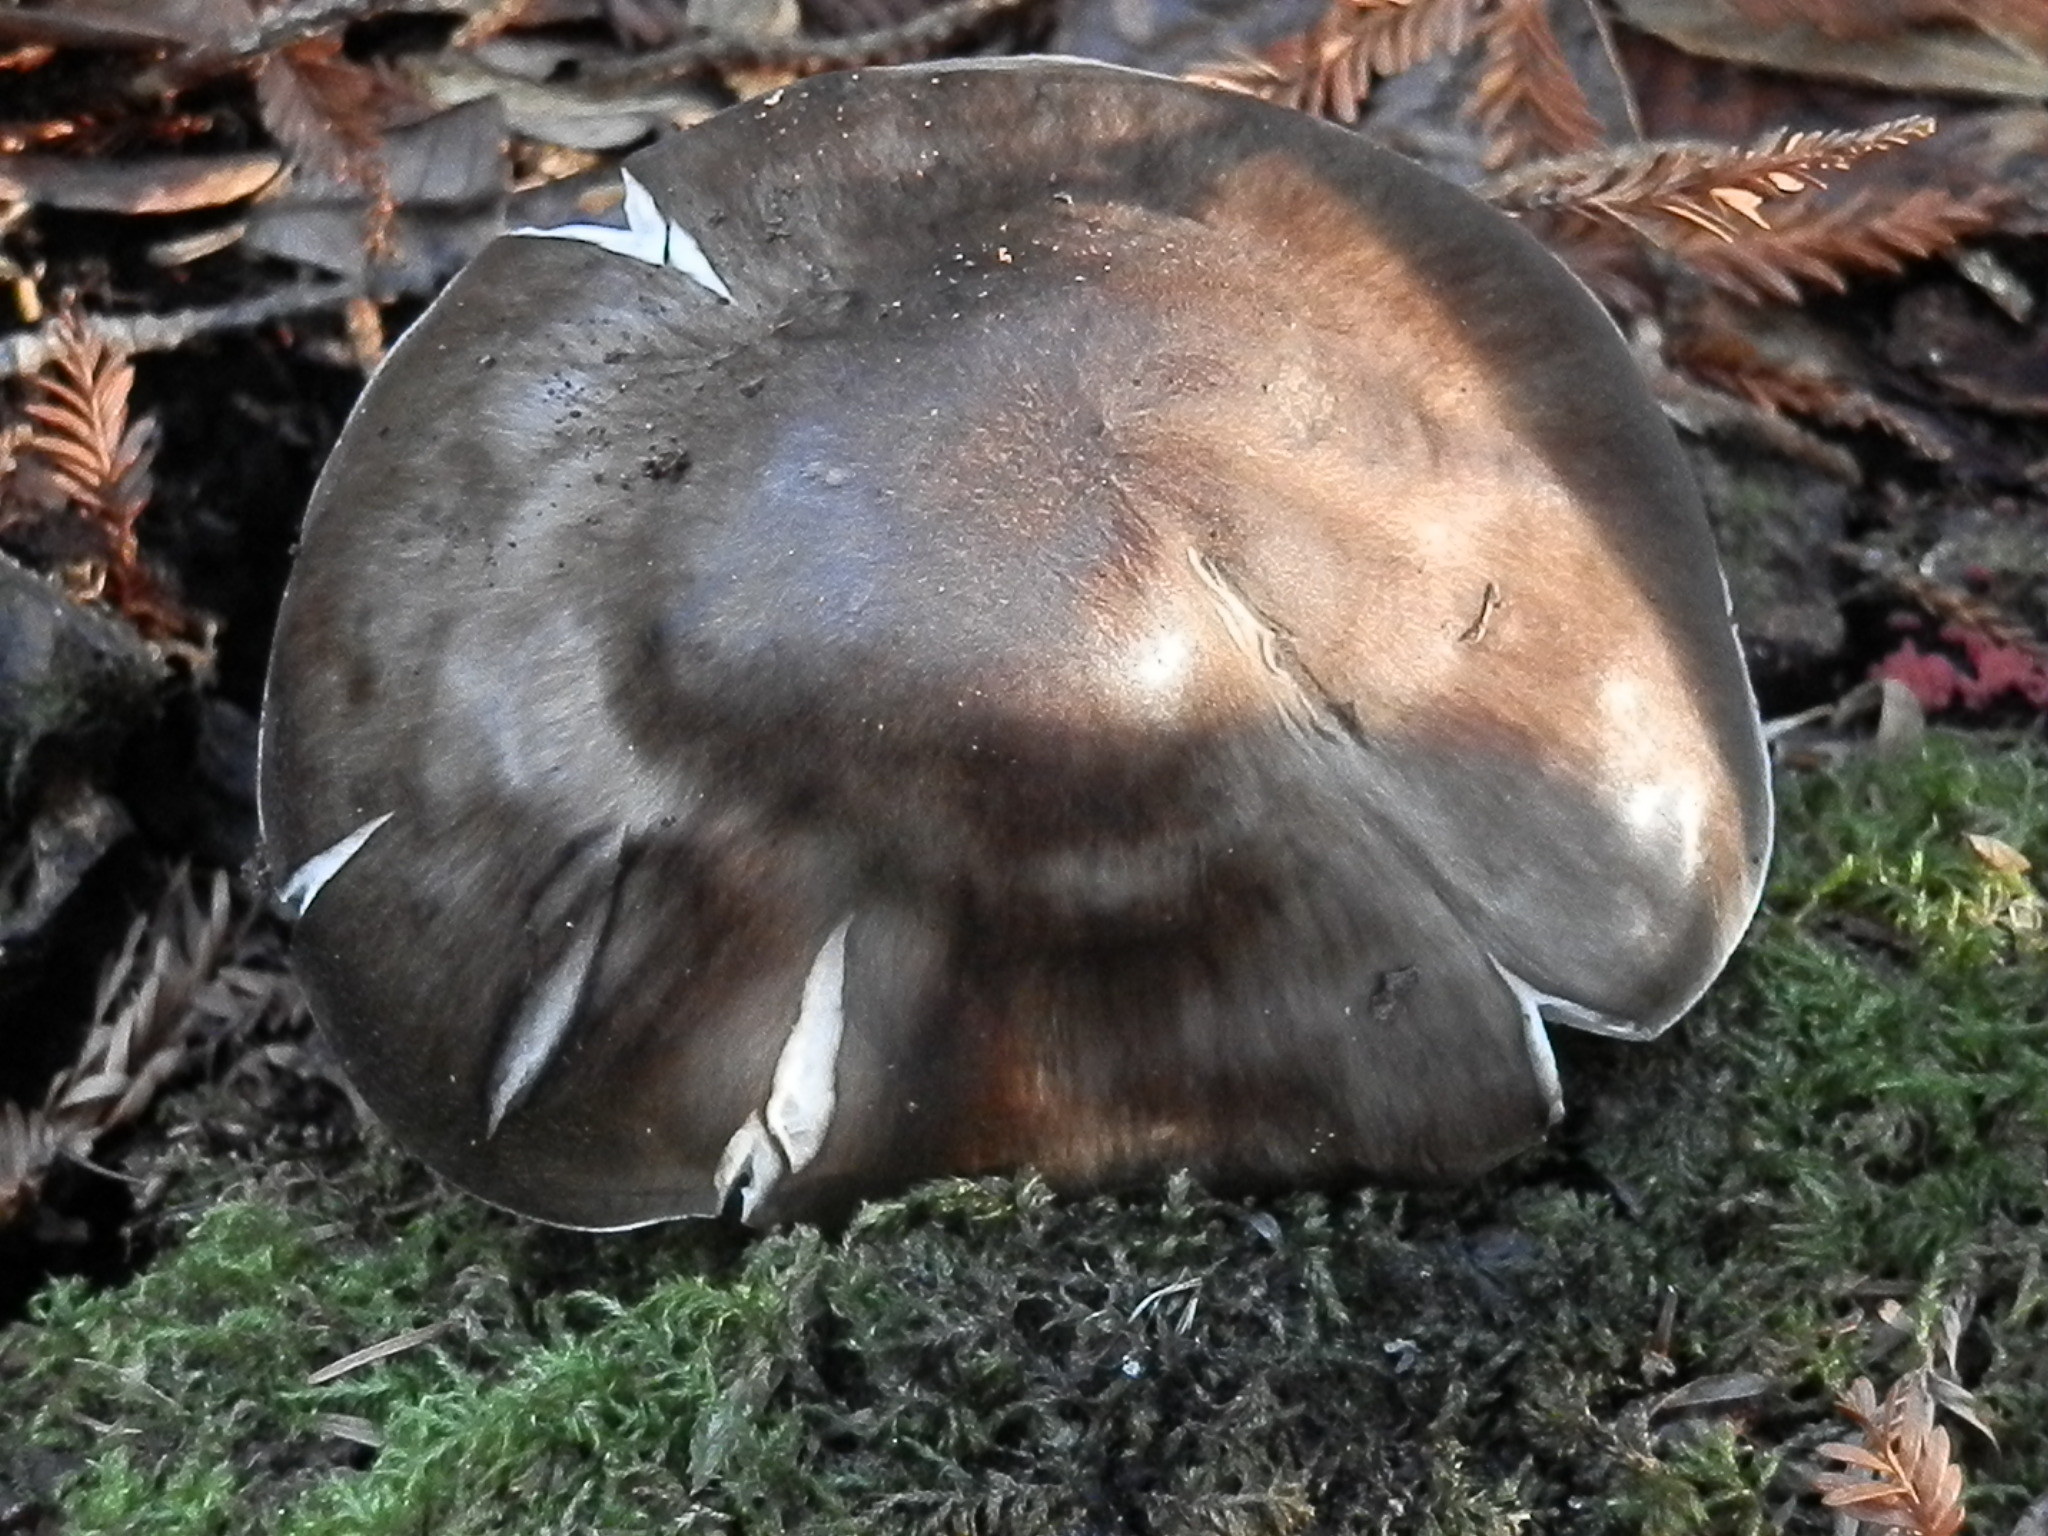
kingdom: Fungi
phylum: Basidiomycota
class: Agaricomycetes
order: Agaricales
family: Pluteaceae
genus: Pluteus
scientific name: Pluteus pouzarianus
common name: Conifer shield
